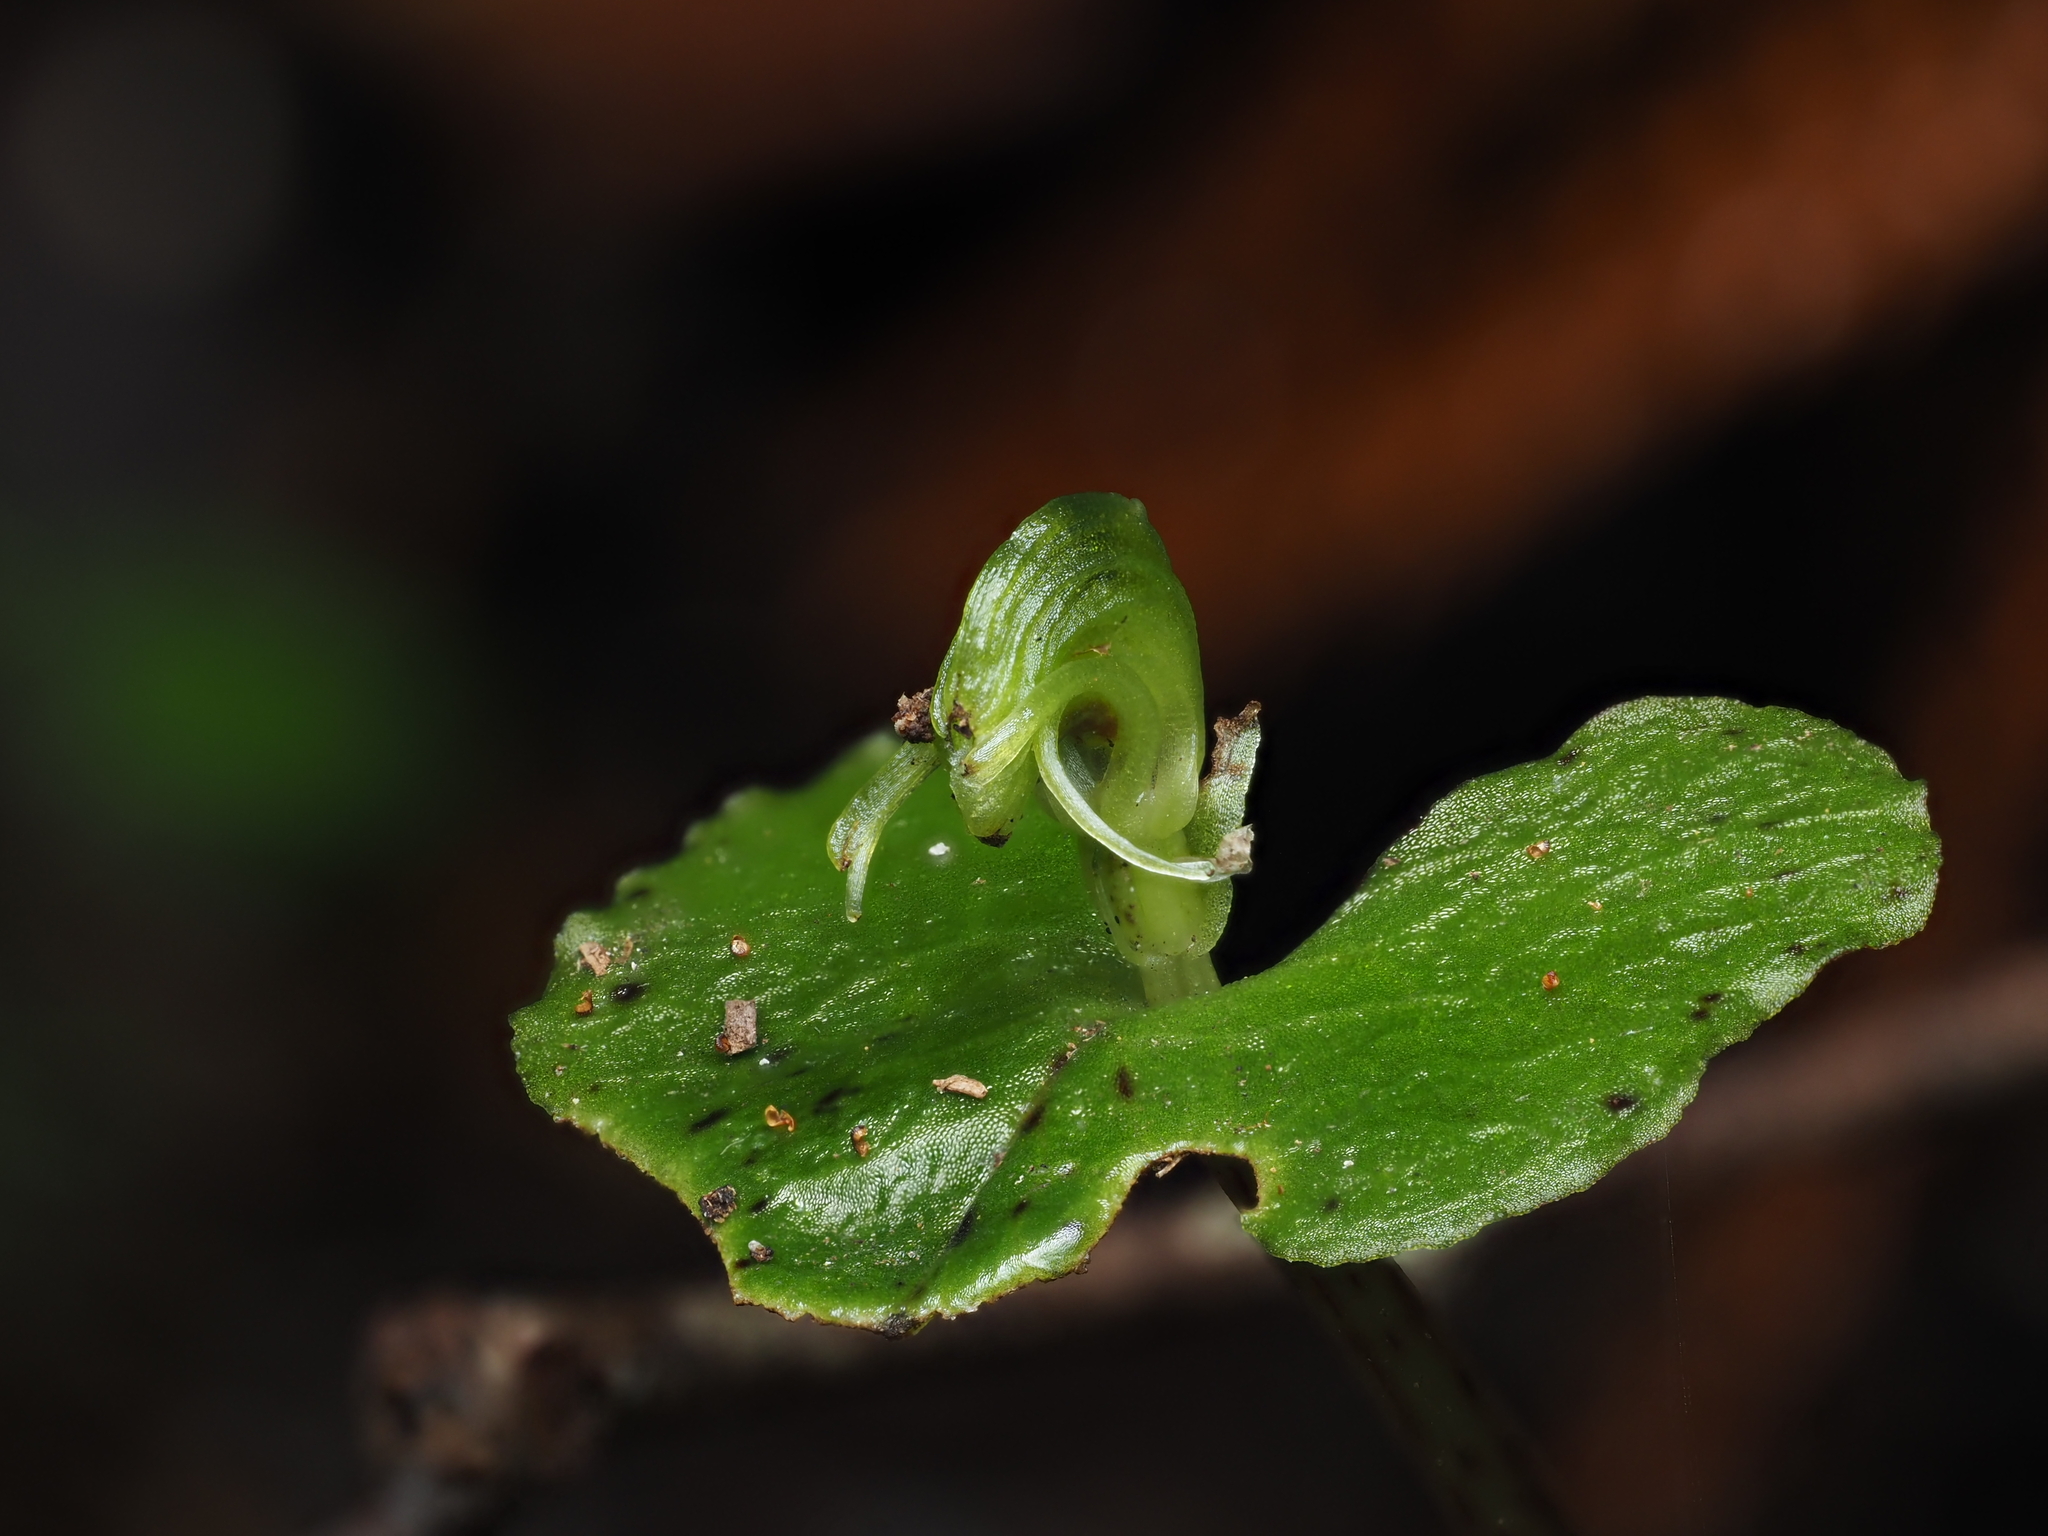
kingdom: Plantae
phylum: Tracheophyta
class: Liliopsida
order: Asparagales
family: Orchidaceae
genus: Corybas
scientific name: Corybas acuminatus
